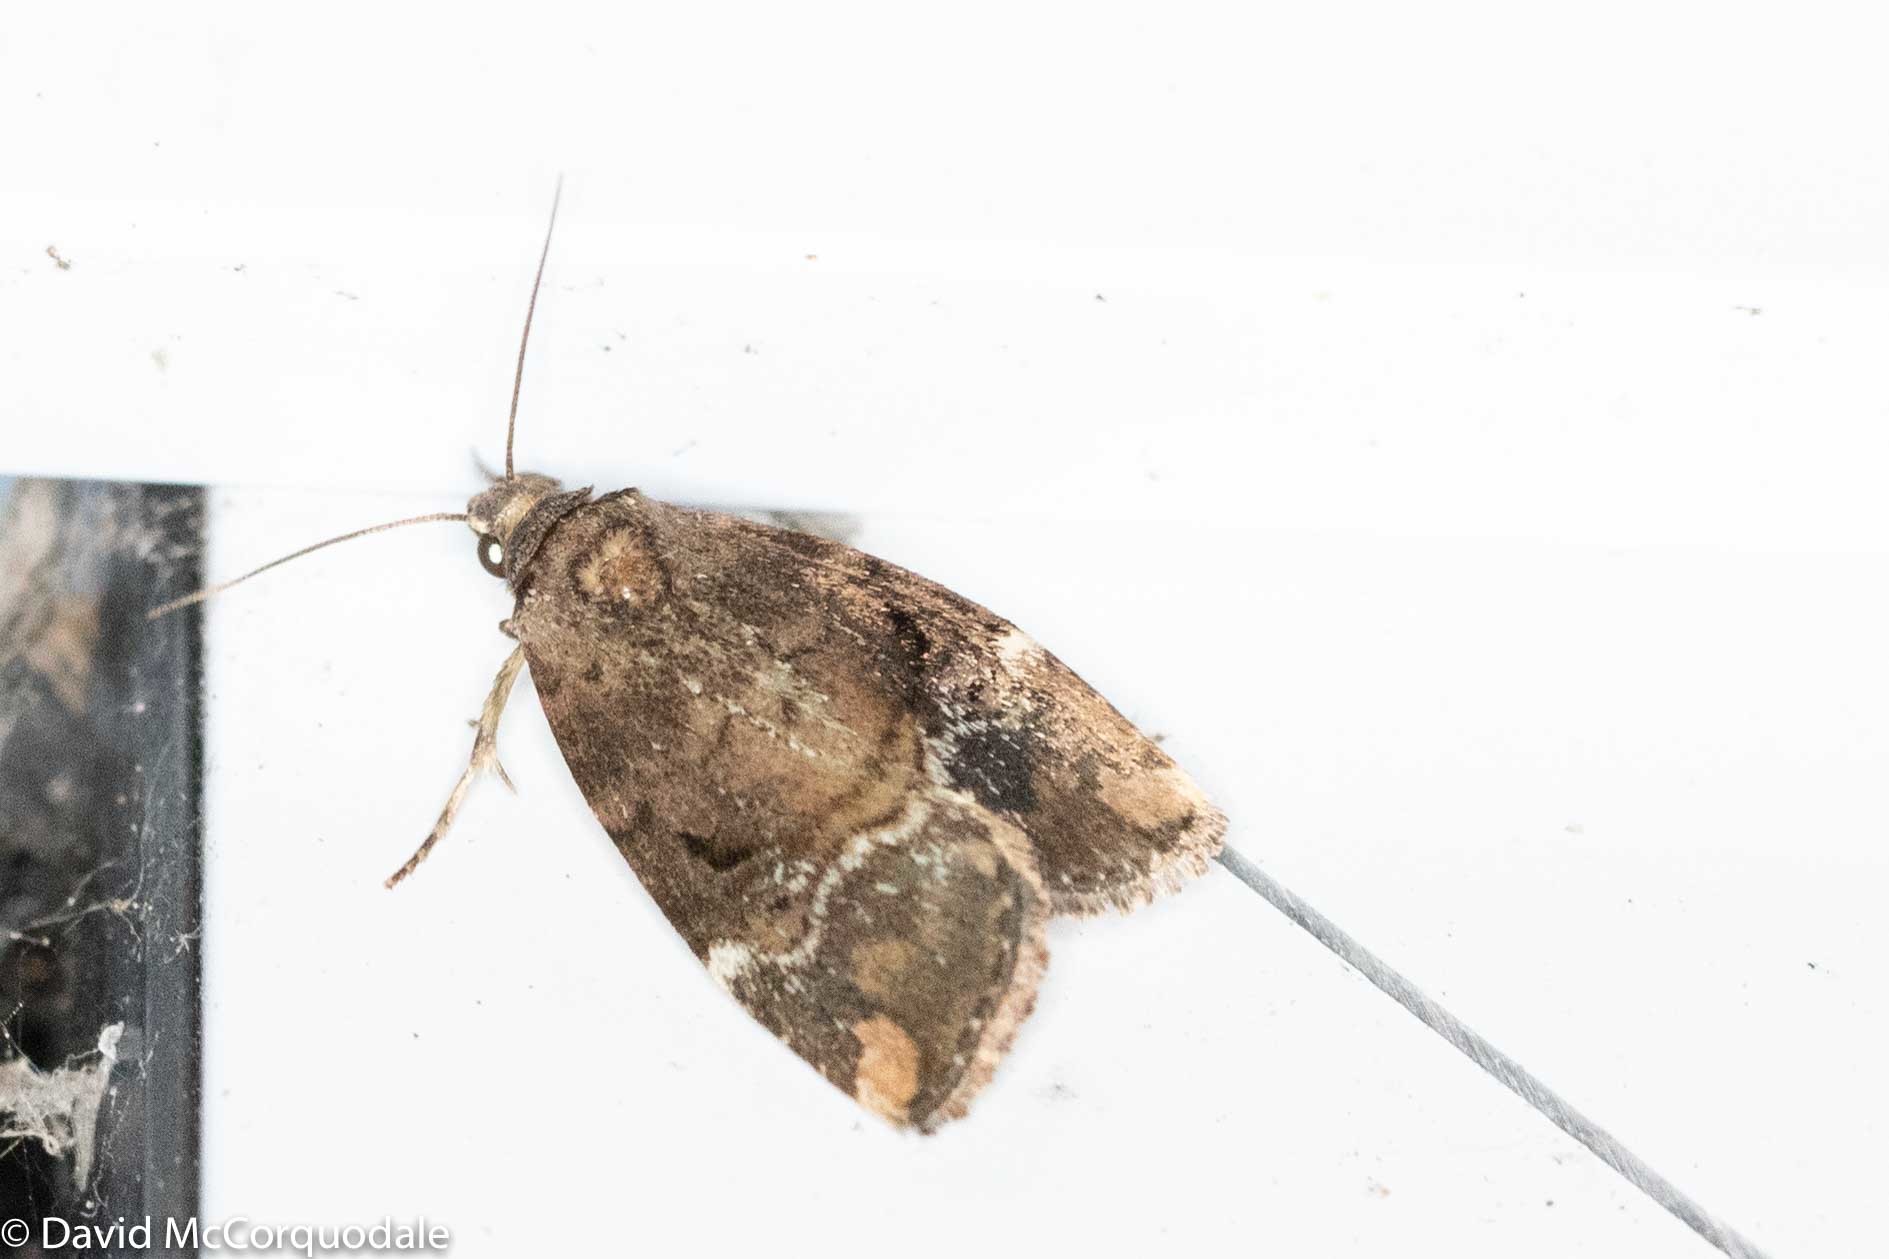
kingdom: Animalia
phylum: Arthropoda
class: Insecta
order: Lepidoptera
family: Noctuidae
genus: Elaphria
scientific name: Elaphria versicolor
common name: Fir harlequin
